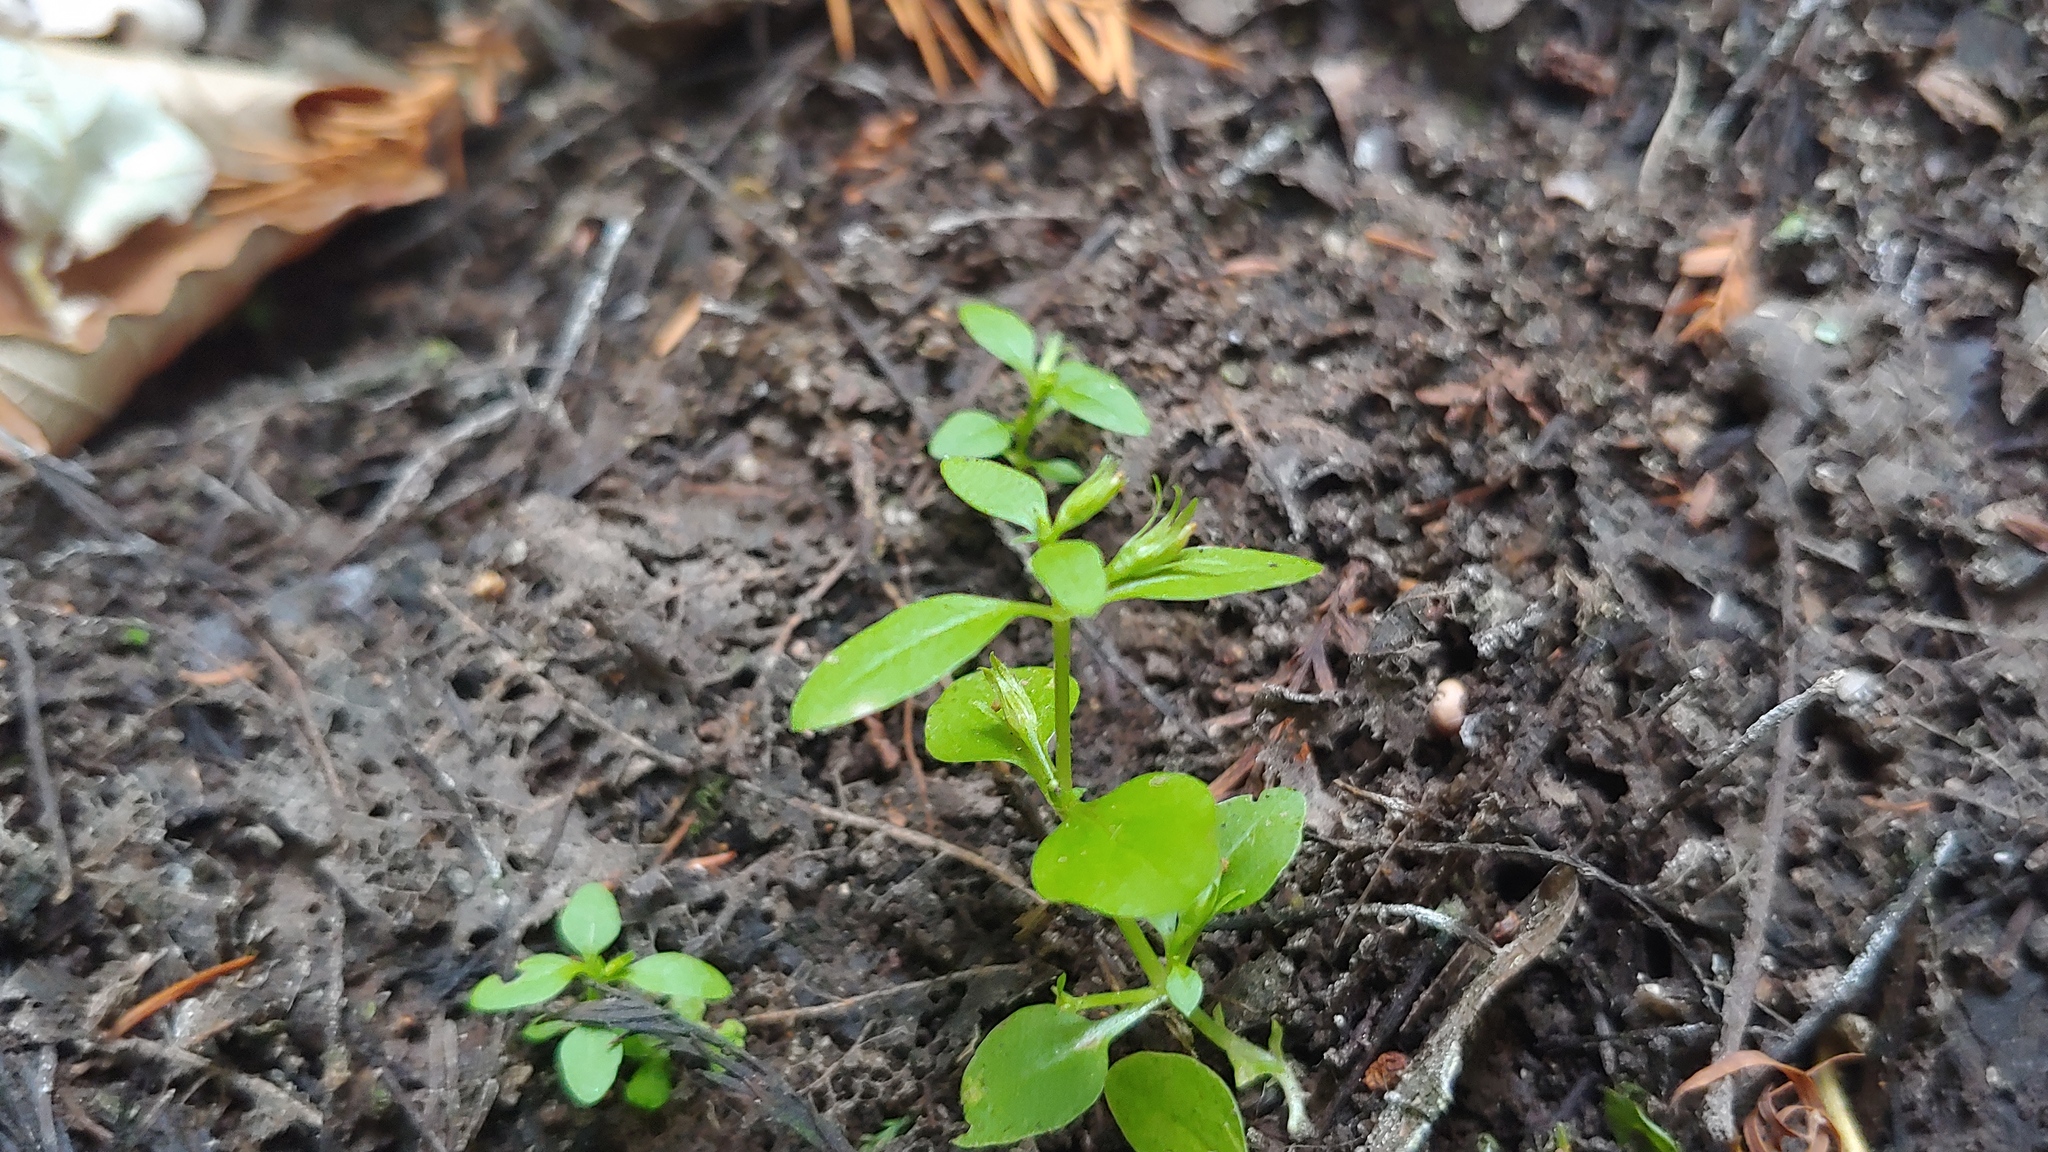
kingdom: Plantae
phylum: Tracheophyta
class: Magnoliopsida
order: Lamiales
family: Plantaginaceae
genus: Gratiola
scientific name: Gratiola neglecta
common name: American hedge-hyssop
